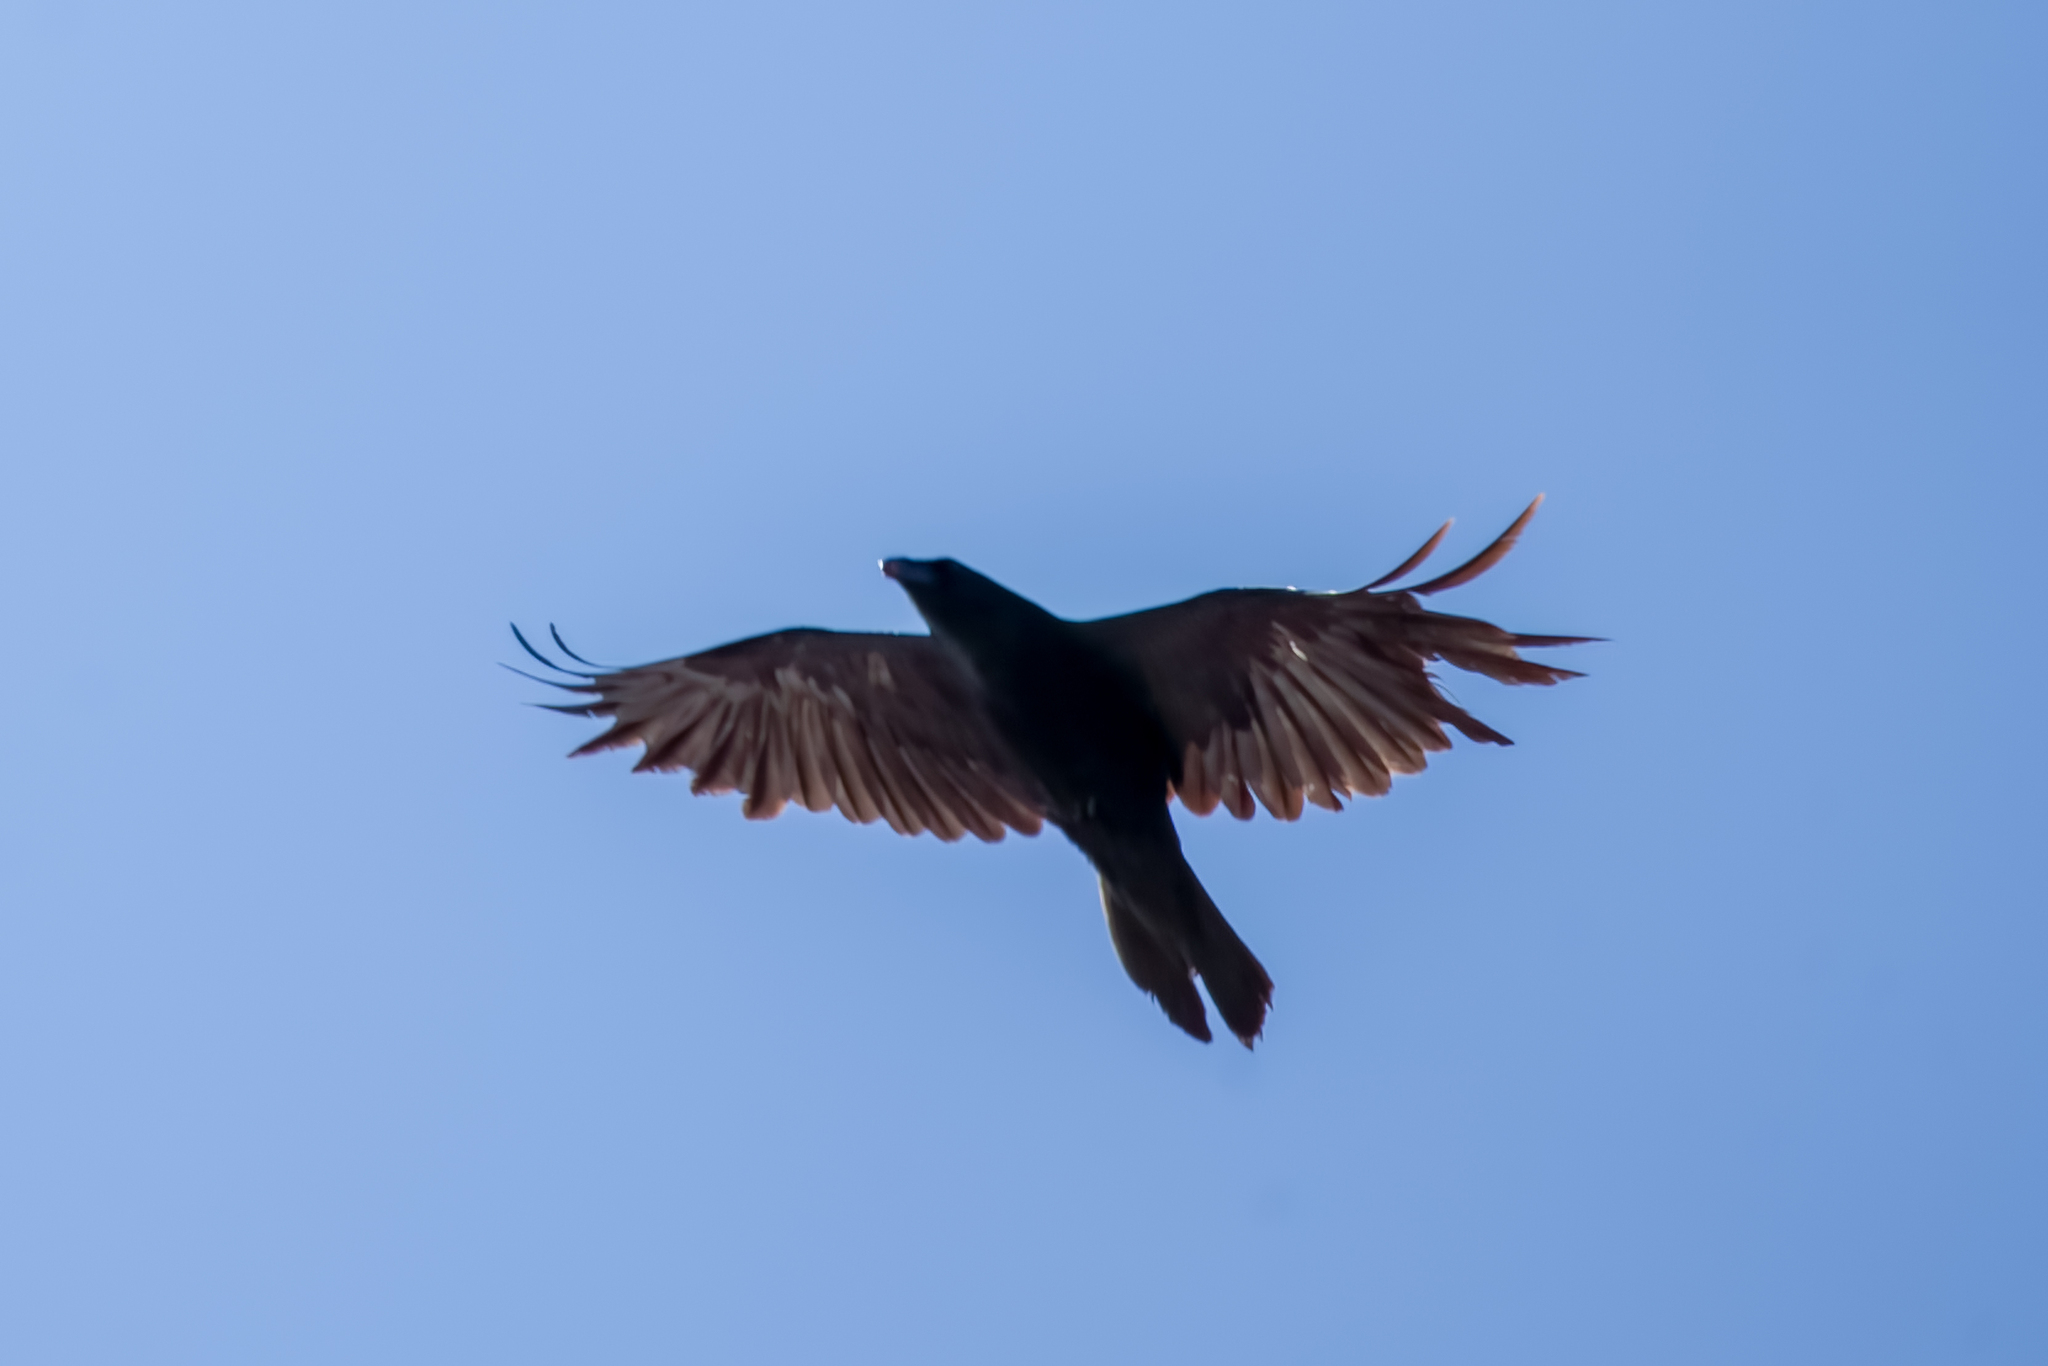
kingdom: Animalia
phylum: Chordata
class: Aves
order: Passeriformes
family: Corvidae
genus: Corvus
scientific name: Corvus corax
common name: Common raven
